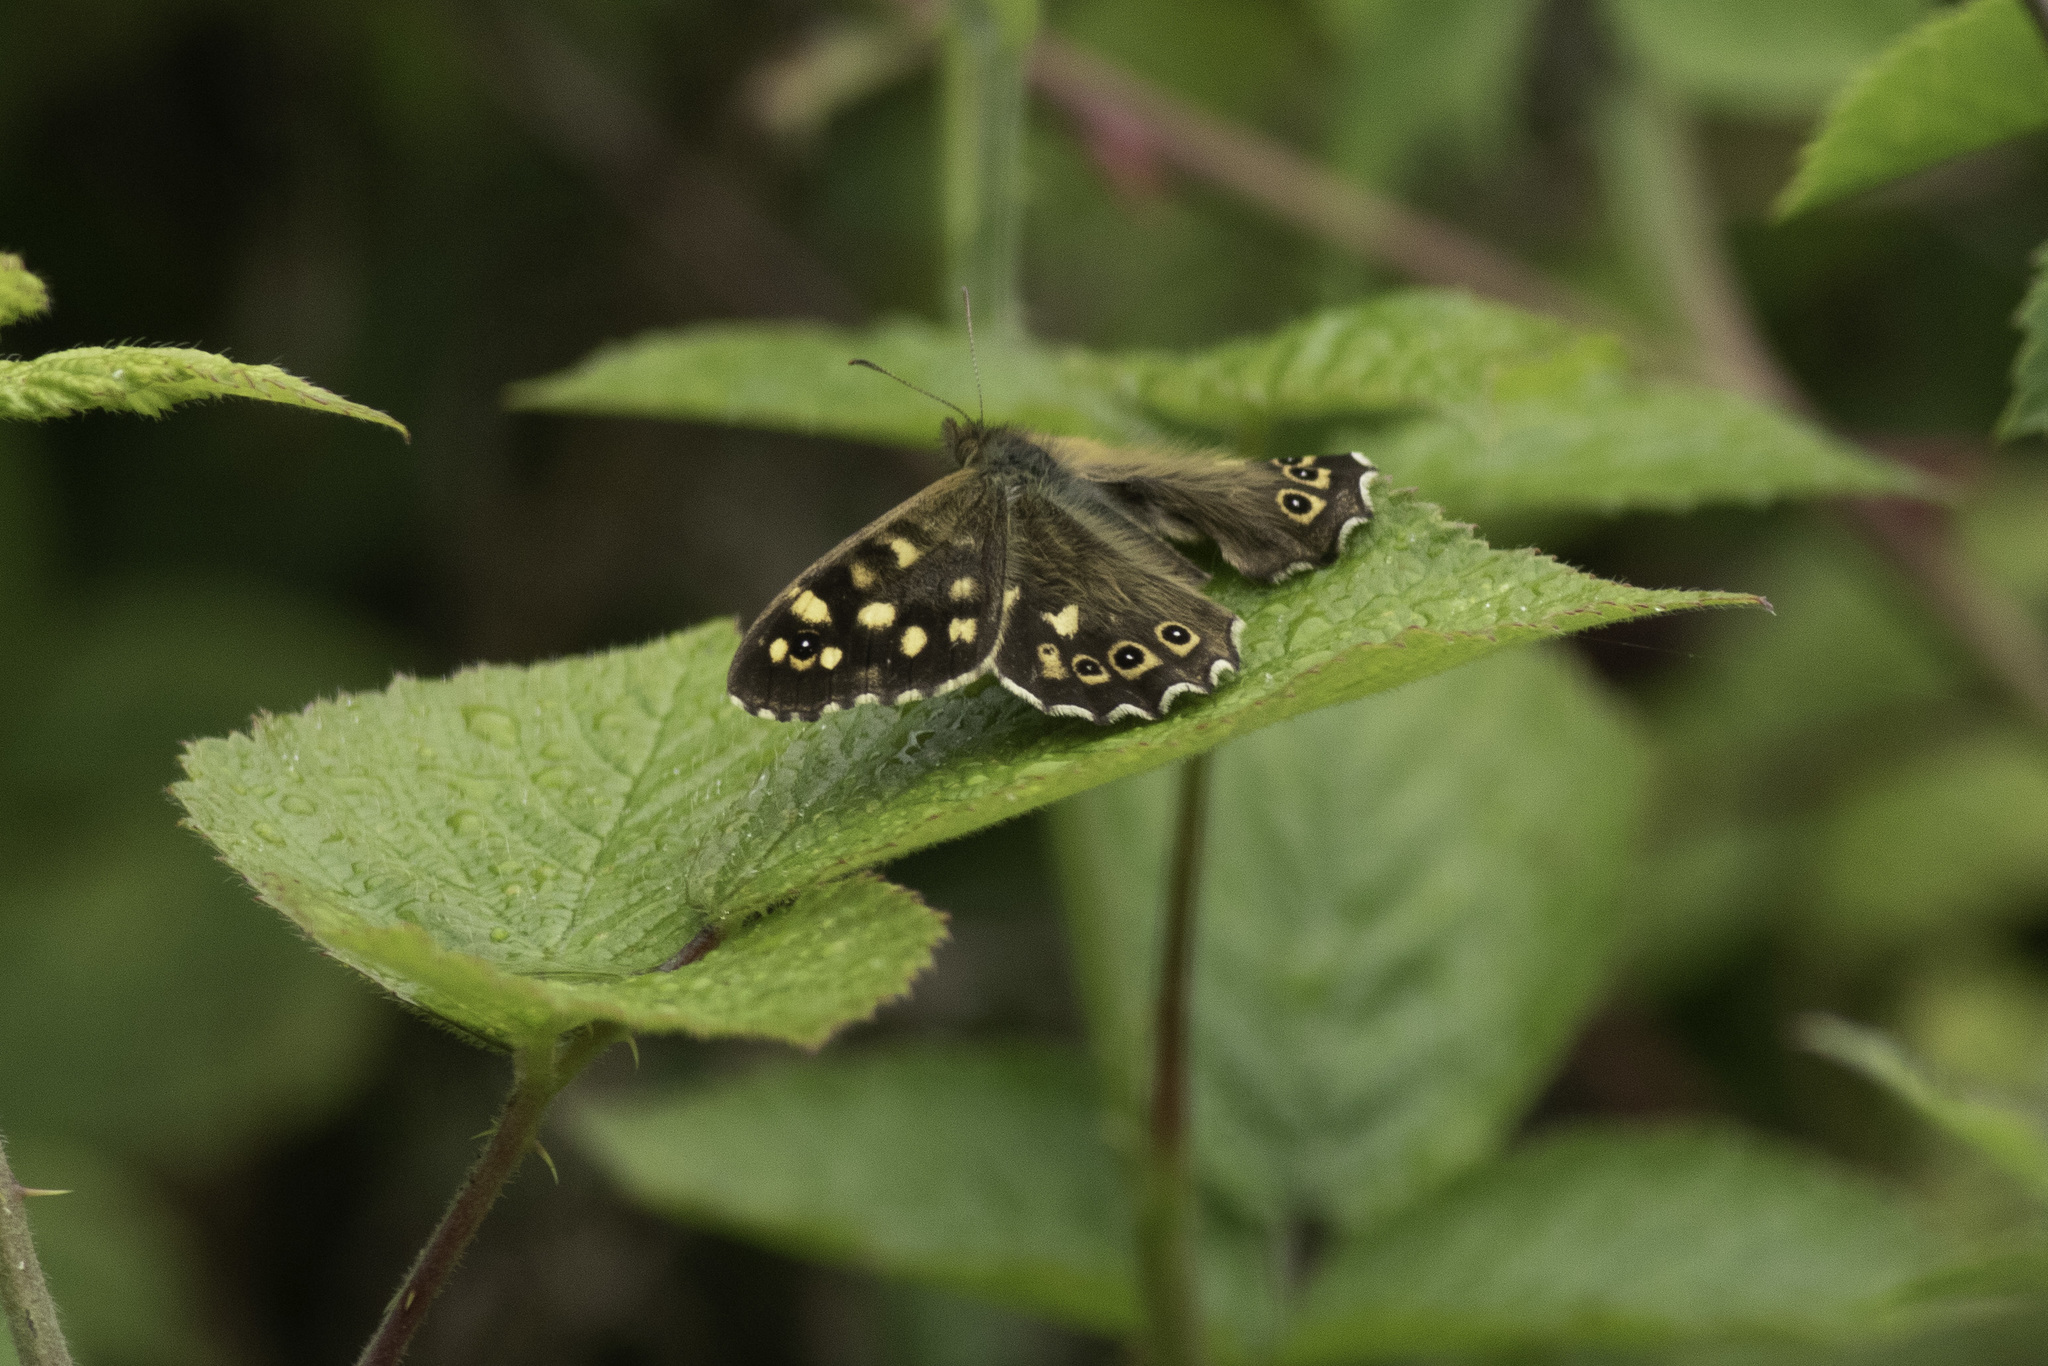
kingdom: Animalia
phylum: Arthropoda
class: Insecta
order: Lepidoptera
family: Nymphalidae
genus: Pararge
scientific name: Pararge aegeria
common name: Speckled wood
